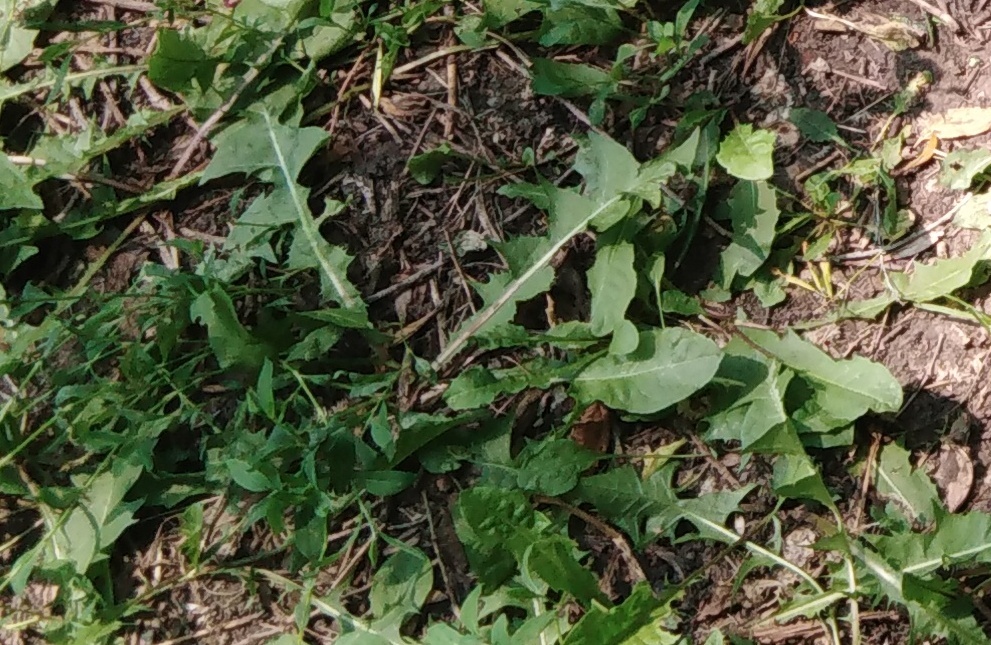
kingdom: Plantae
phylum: Tracheophyta
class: Magnoliopsida
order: Asterales
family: Asteraceae
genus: Taraxacum
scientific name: Taraxacum officinale
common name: Common dandelion
